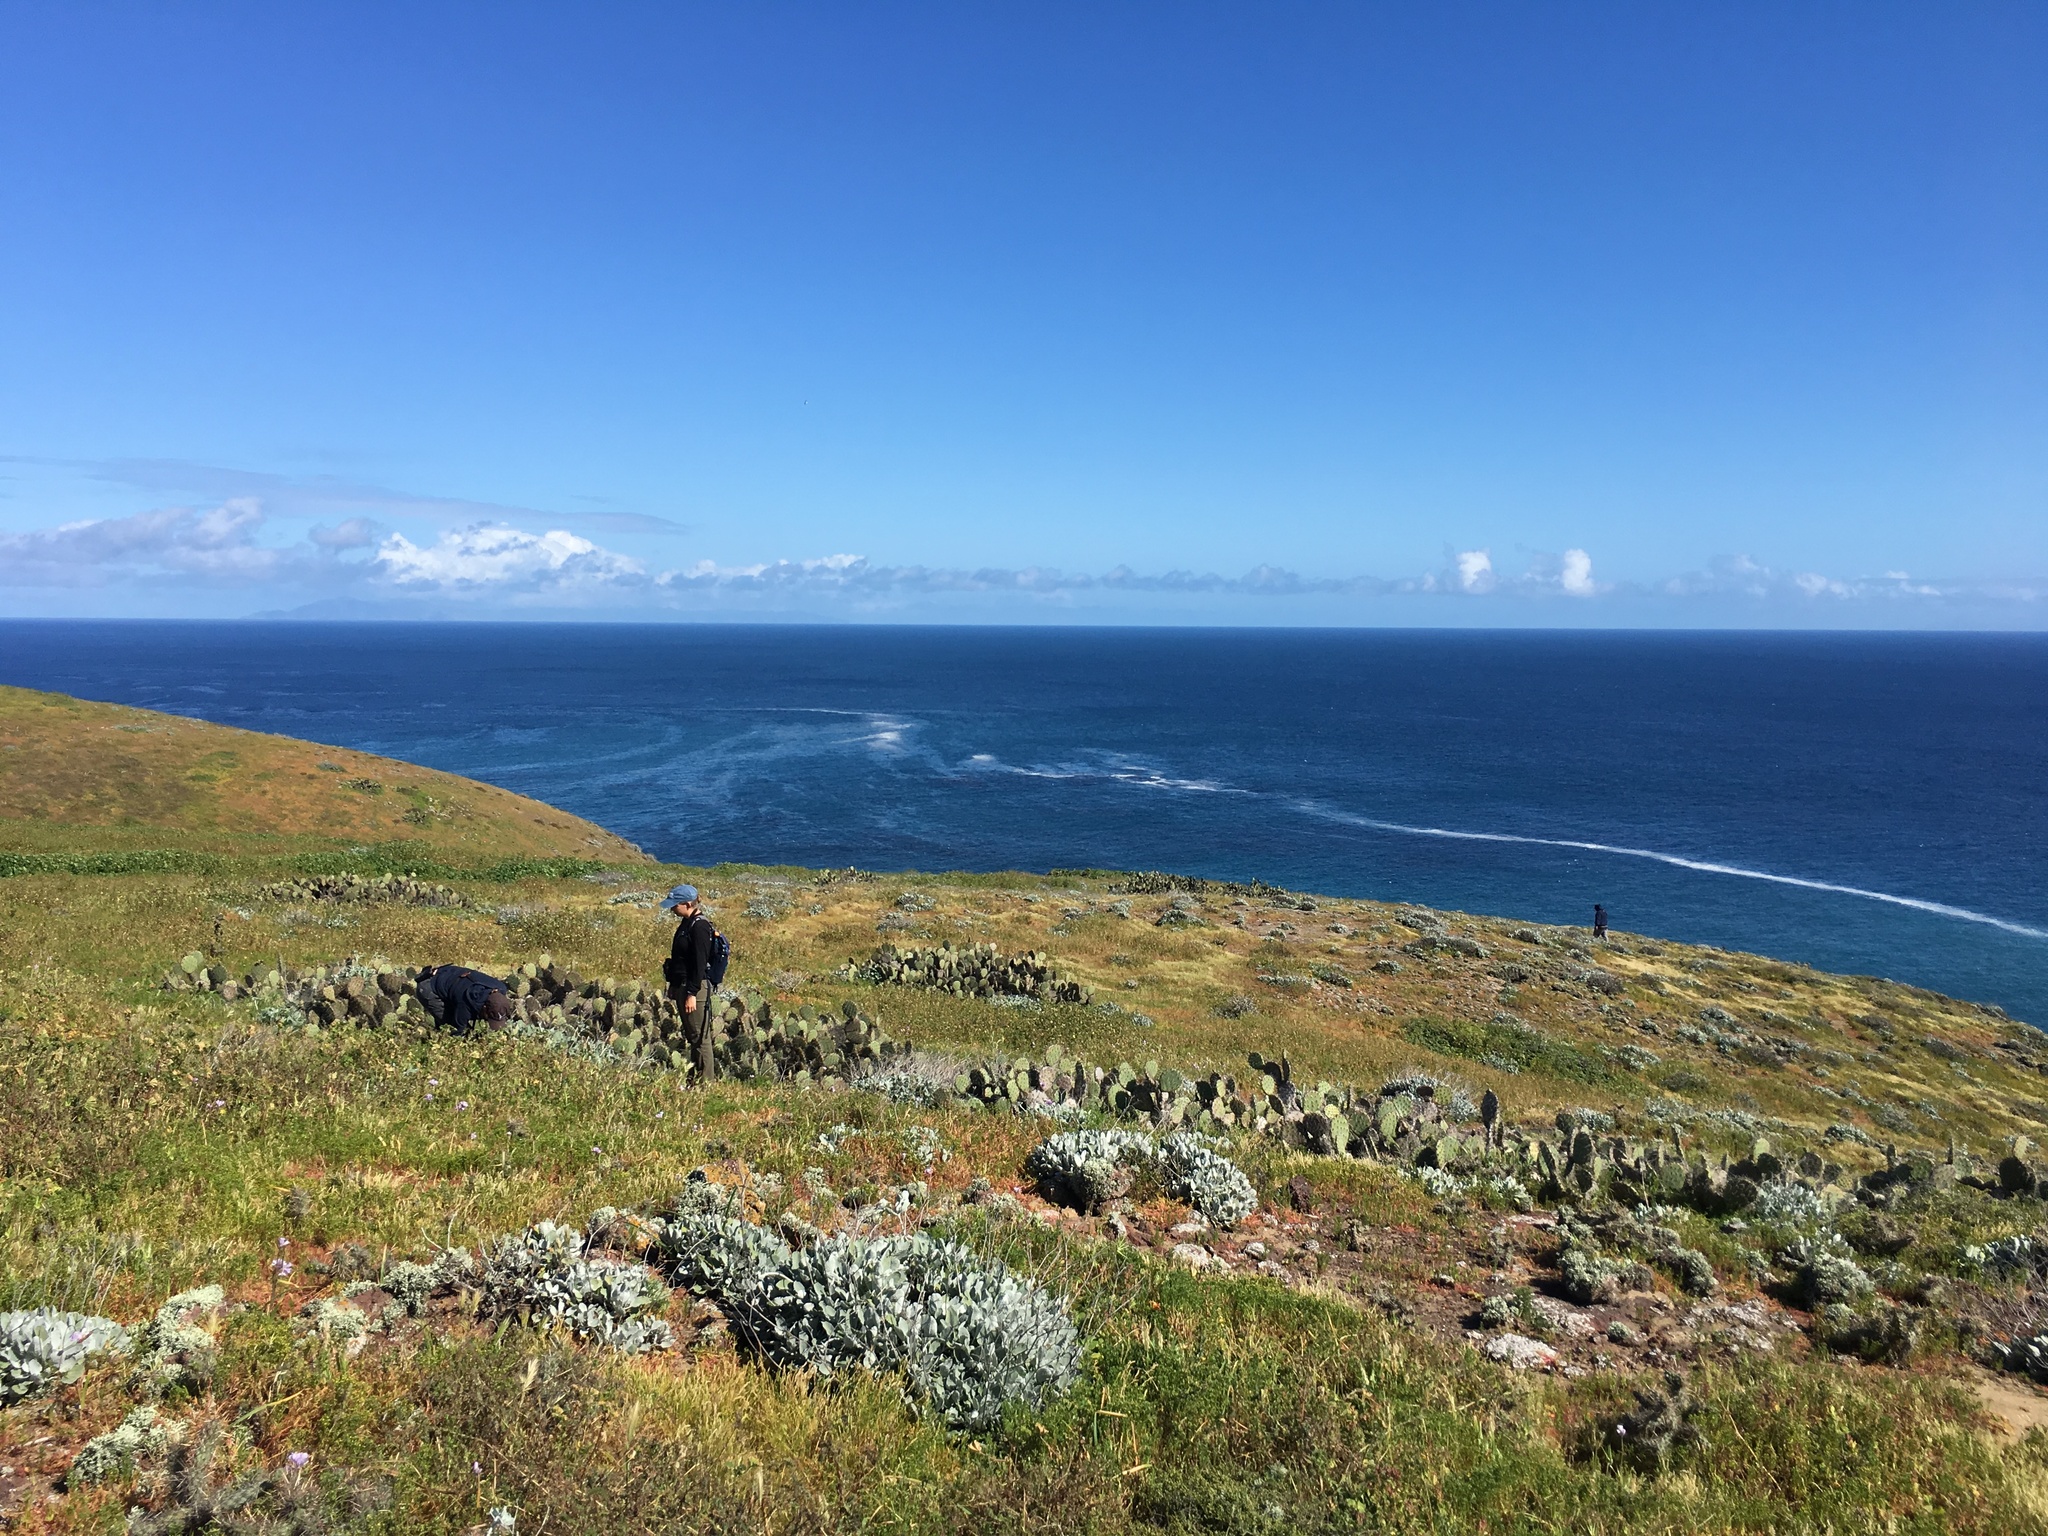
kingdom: Plantae
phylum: Tracheophyta
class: Magnoliopsida
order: Caryophyllales
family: Polygonaceae
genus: Eriogonum
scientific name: Eriogonum giganteum
